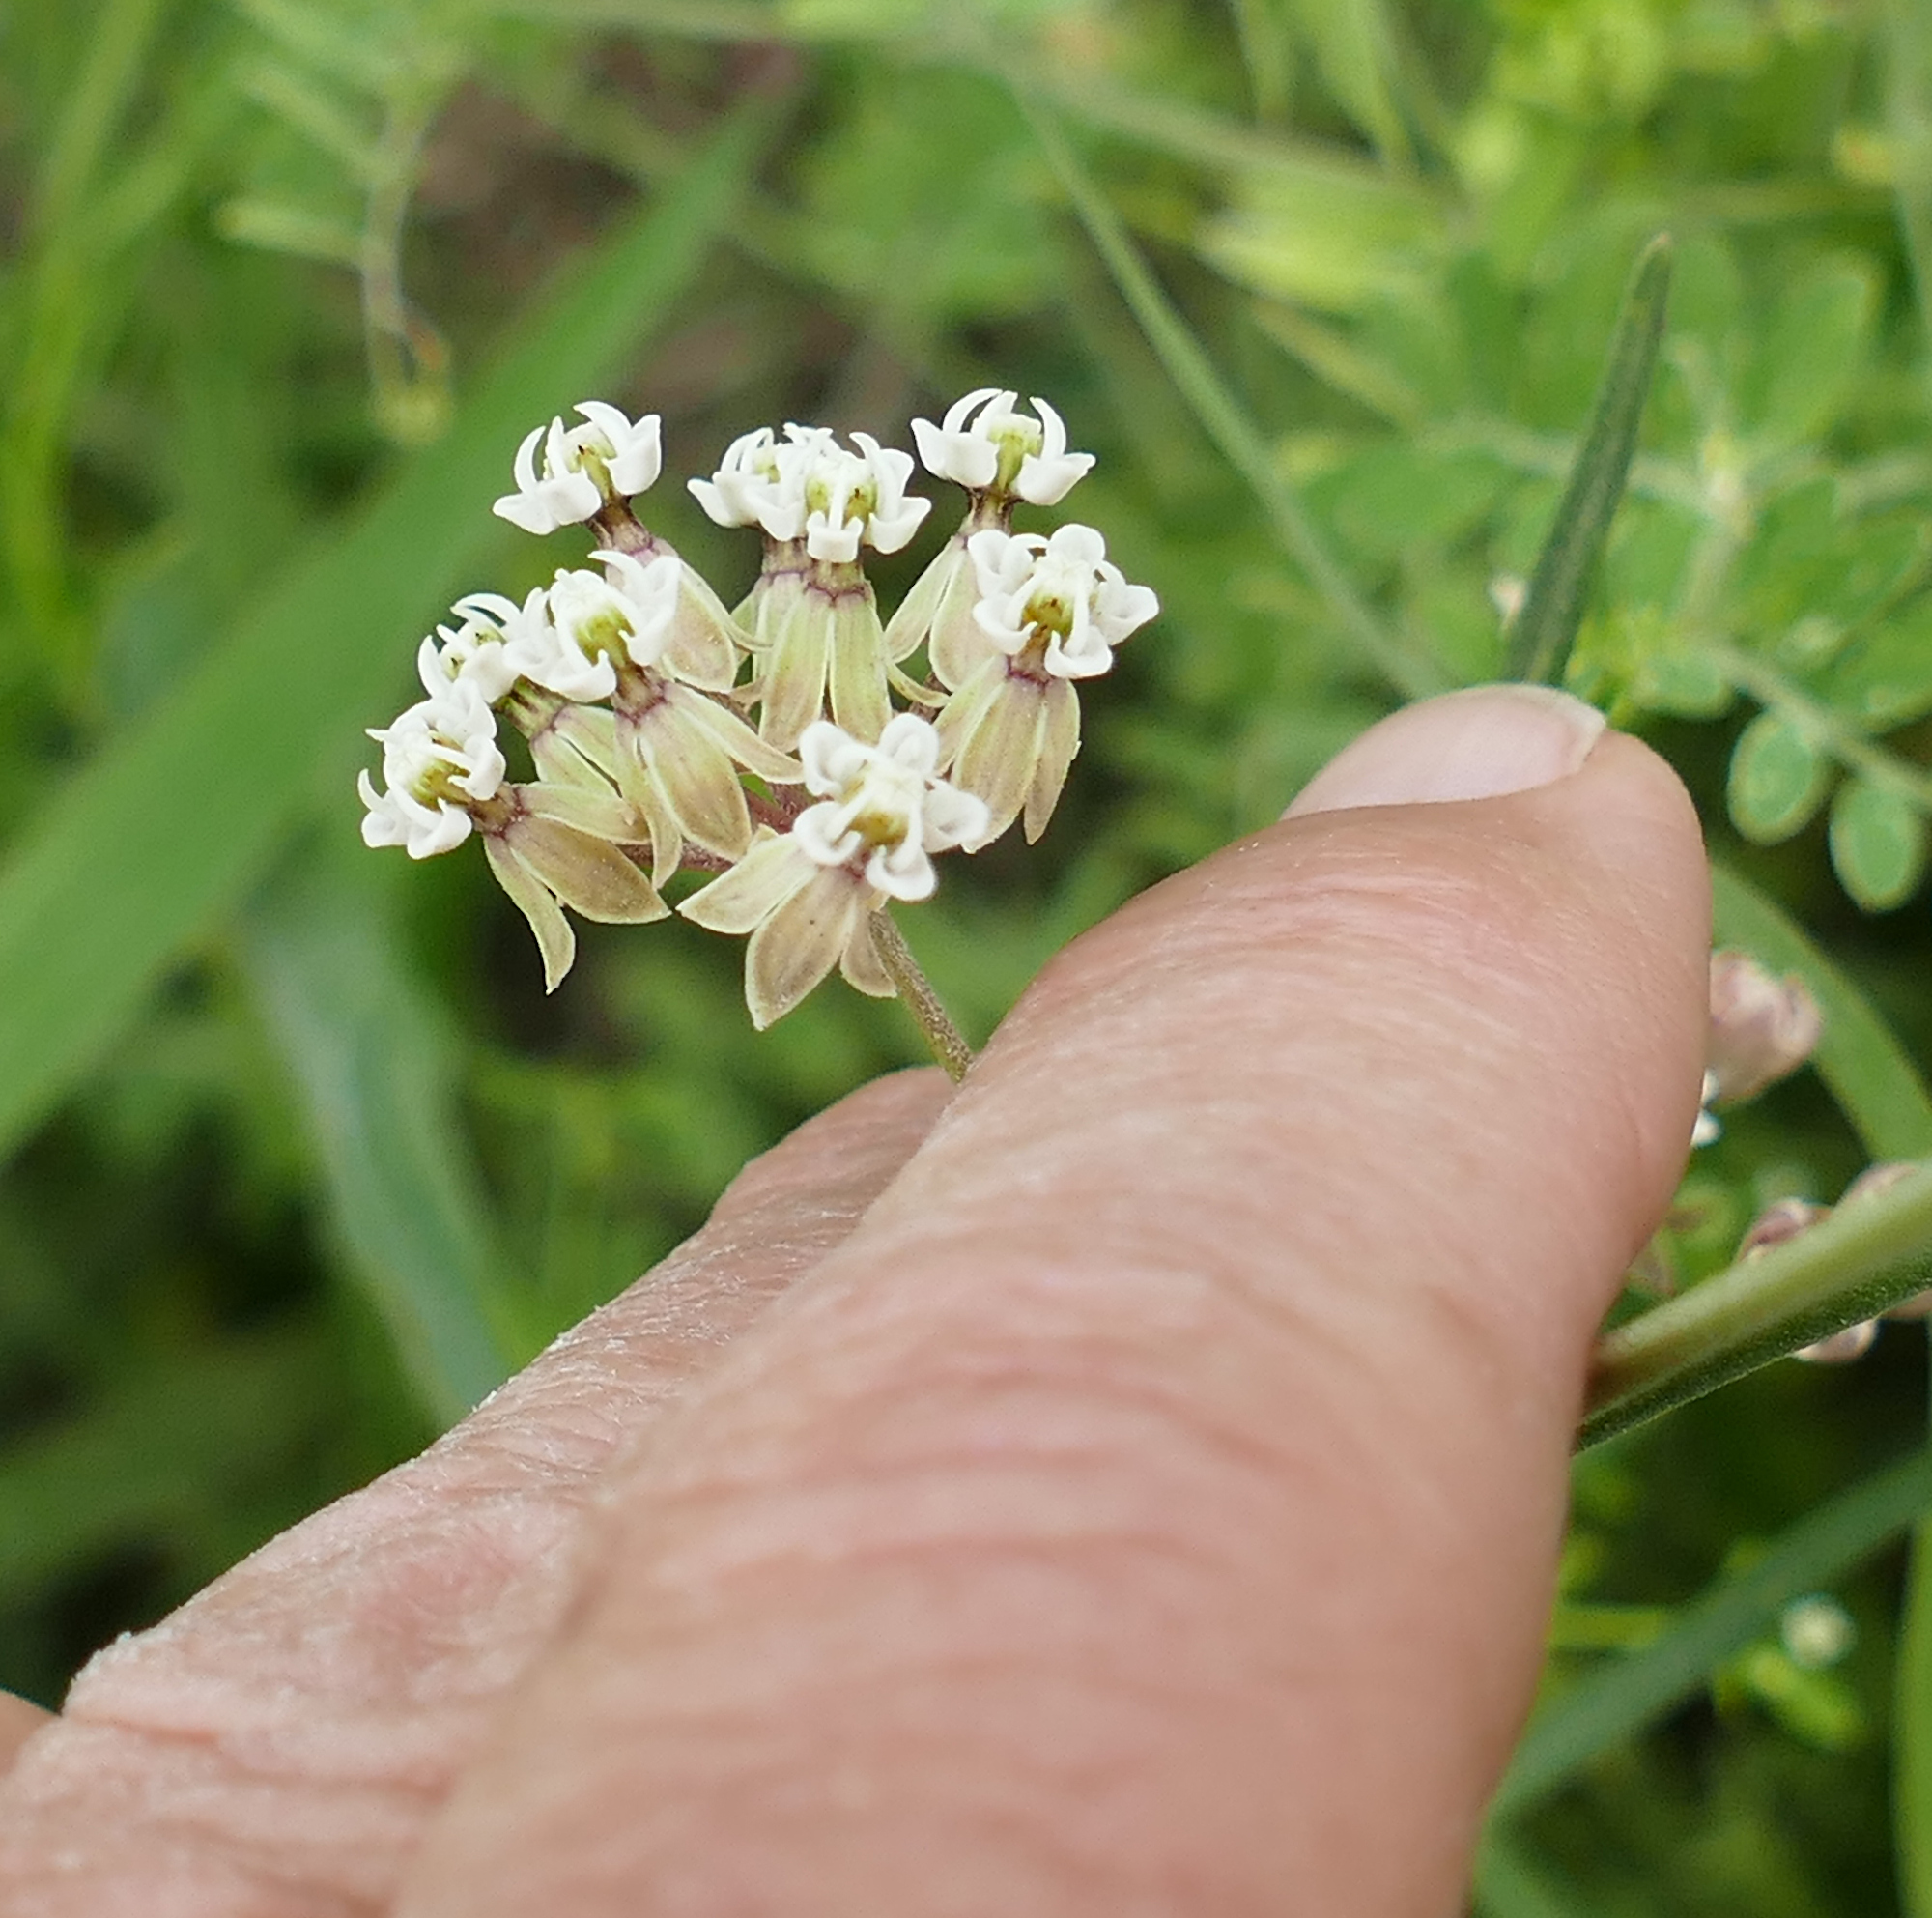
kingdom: Plantae
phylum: Tracheophyta
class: Magnoliopsida
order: Gentianales
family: Apocynaceae
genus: Asclepias
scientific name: Asclepias linearis
